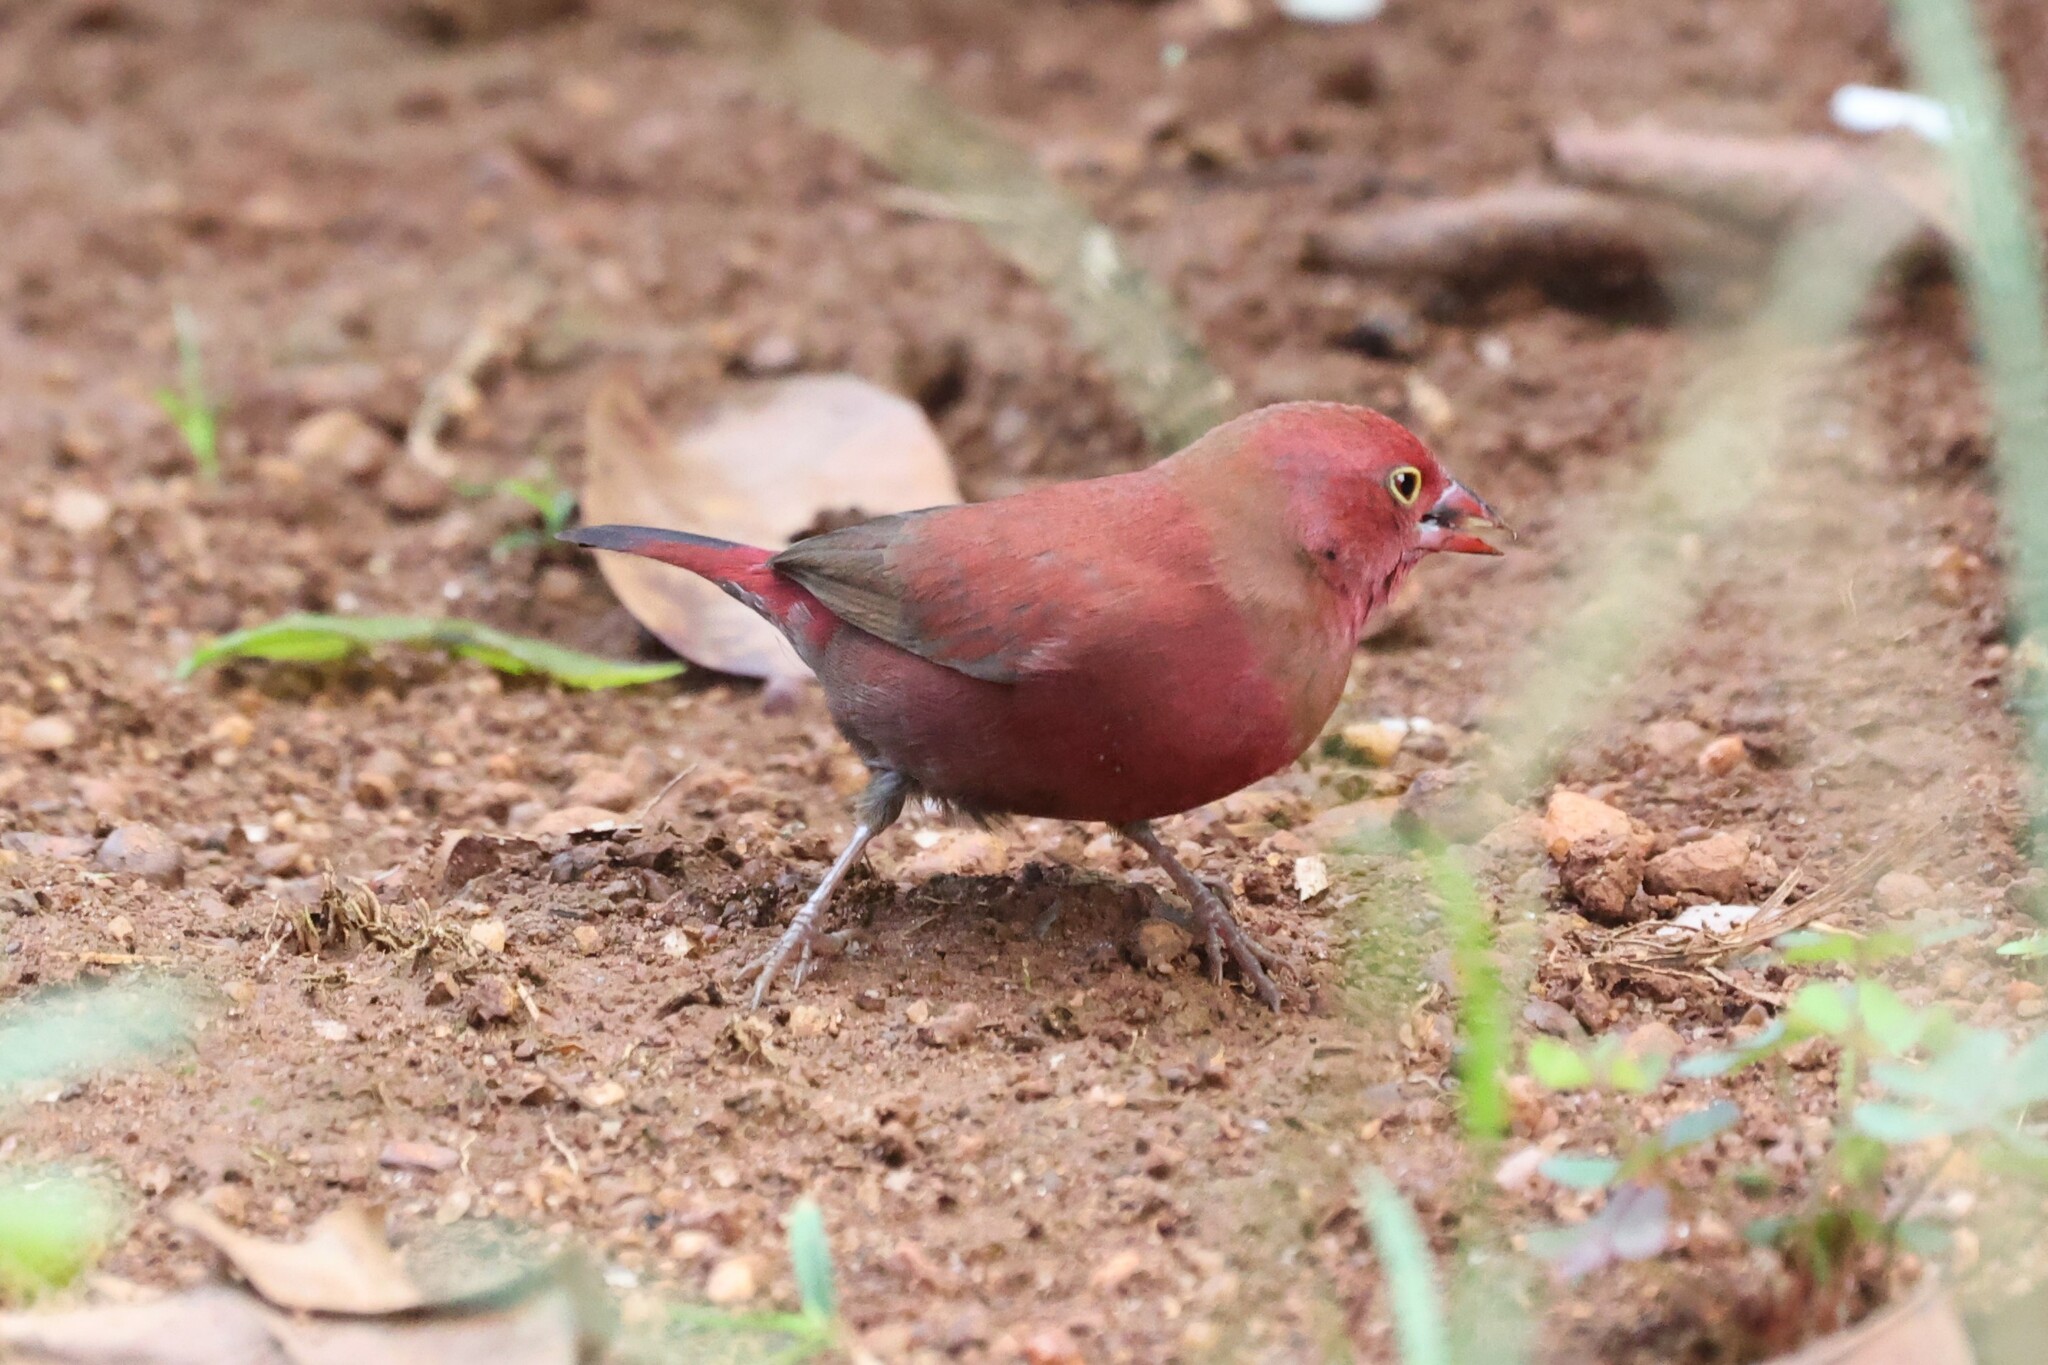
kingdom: Animalia
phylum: Chordata
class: Aves
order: Passeriformes
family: Estrildidae
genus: Lagonosticta
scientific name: Lagonosticta senegala
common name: Red-billed firefinch
